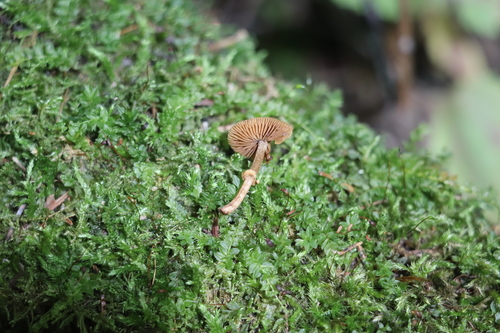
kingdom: Fungi
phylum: Basidiomycota
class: Agaricomycetes
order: Agaricales
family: Bolbitiaceae
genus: Conocybe
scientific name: Conocybe rugosa
